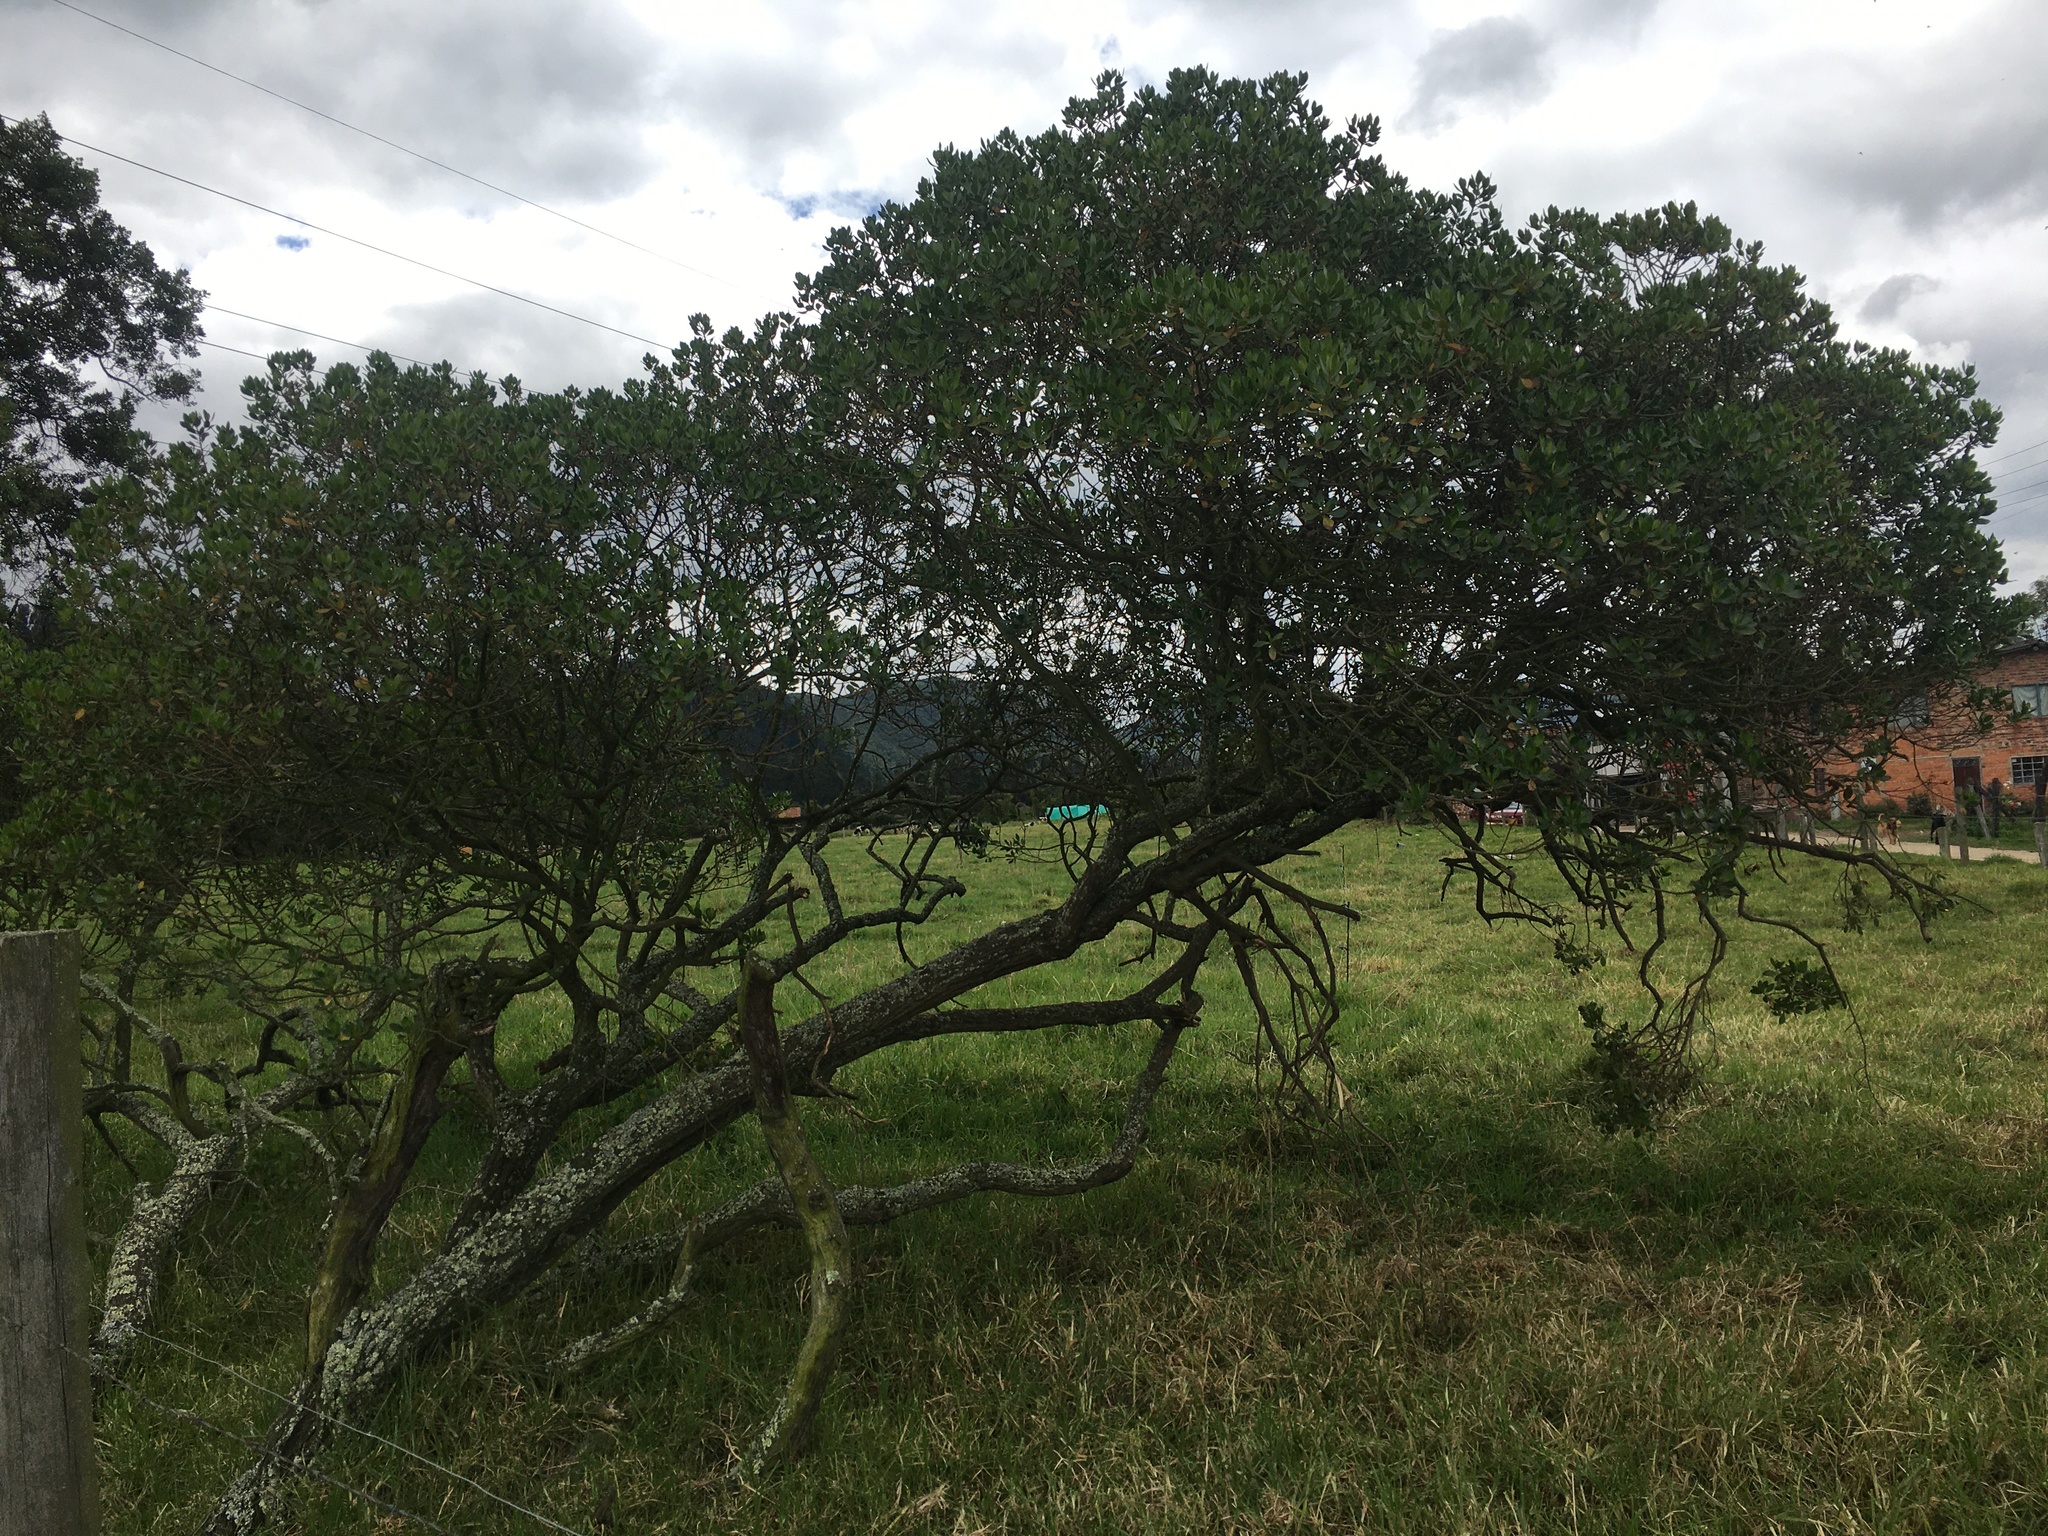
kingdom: Plantae
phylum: Tracheophyta
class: Magnoliopsida
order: Asterales
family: Asteraceae
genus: Baccharis
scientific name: Baccharis macrantha
